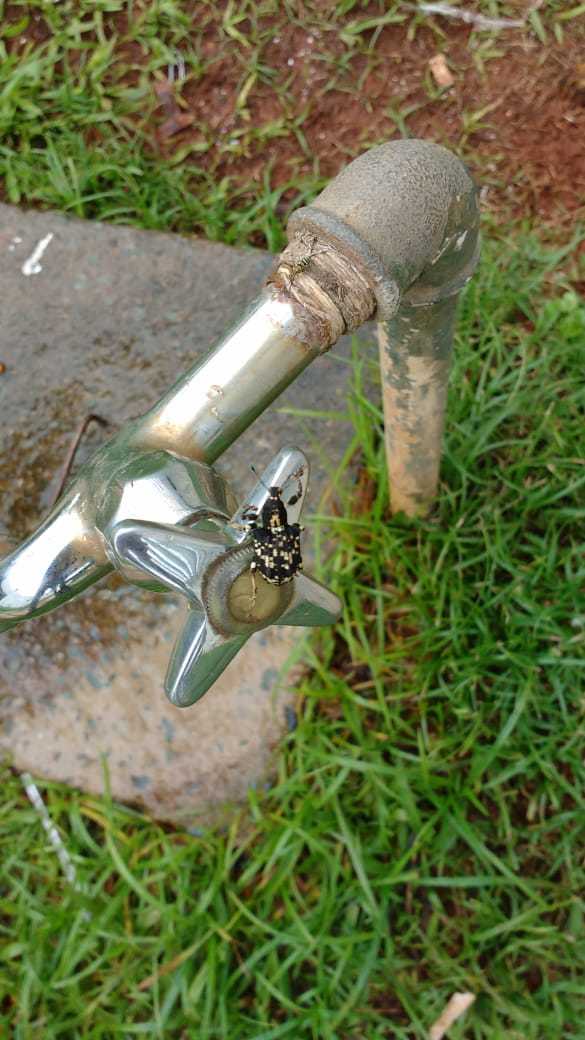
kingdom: Animalia
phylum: Arthropoda
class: Insecta
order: Coleoptera
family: Curculionidae
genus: Rhigus
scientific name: Rhigus dejeanii
